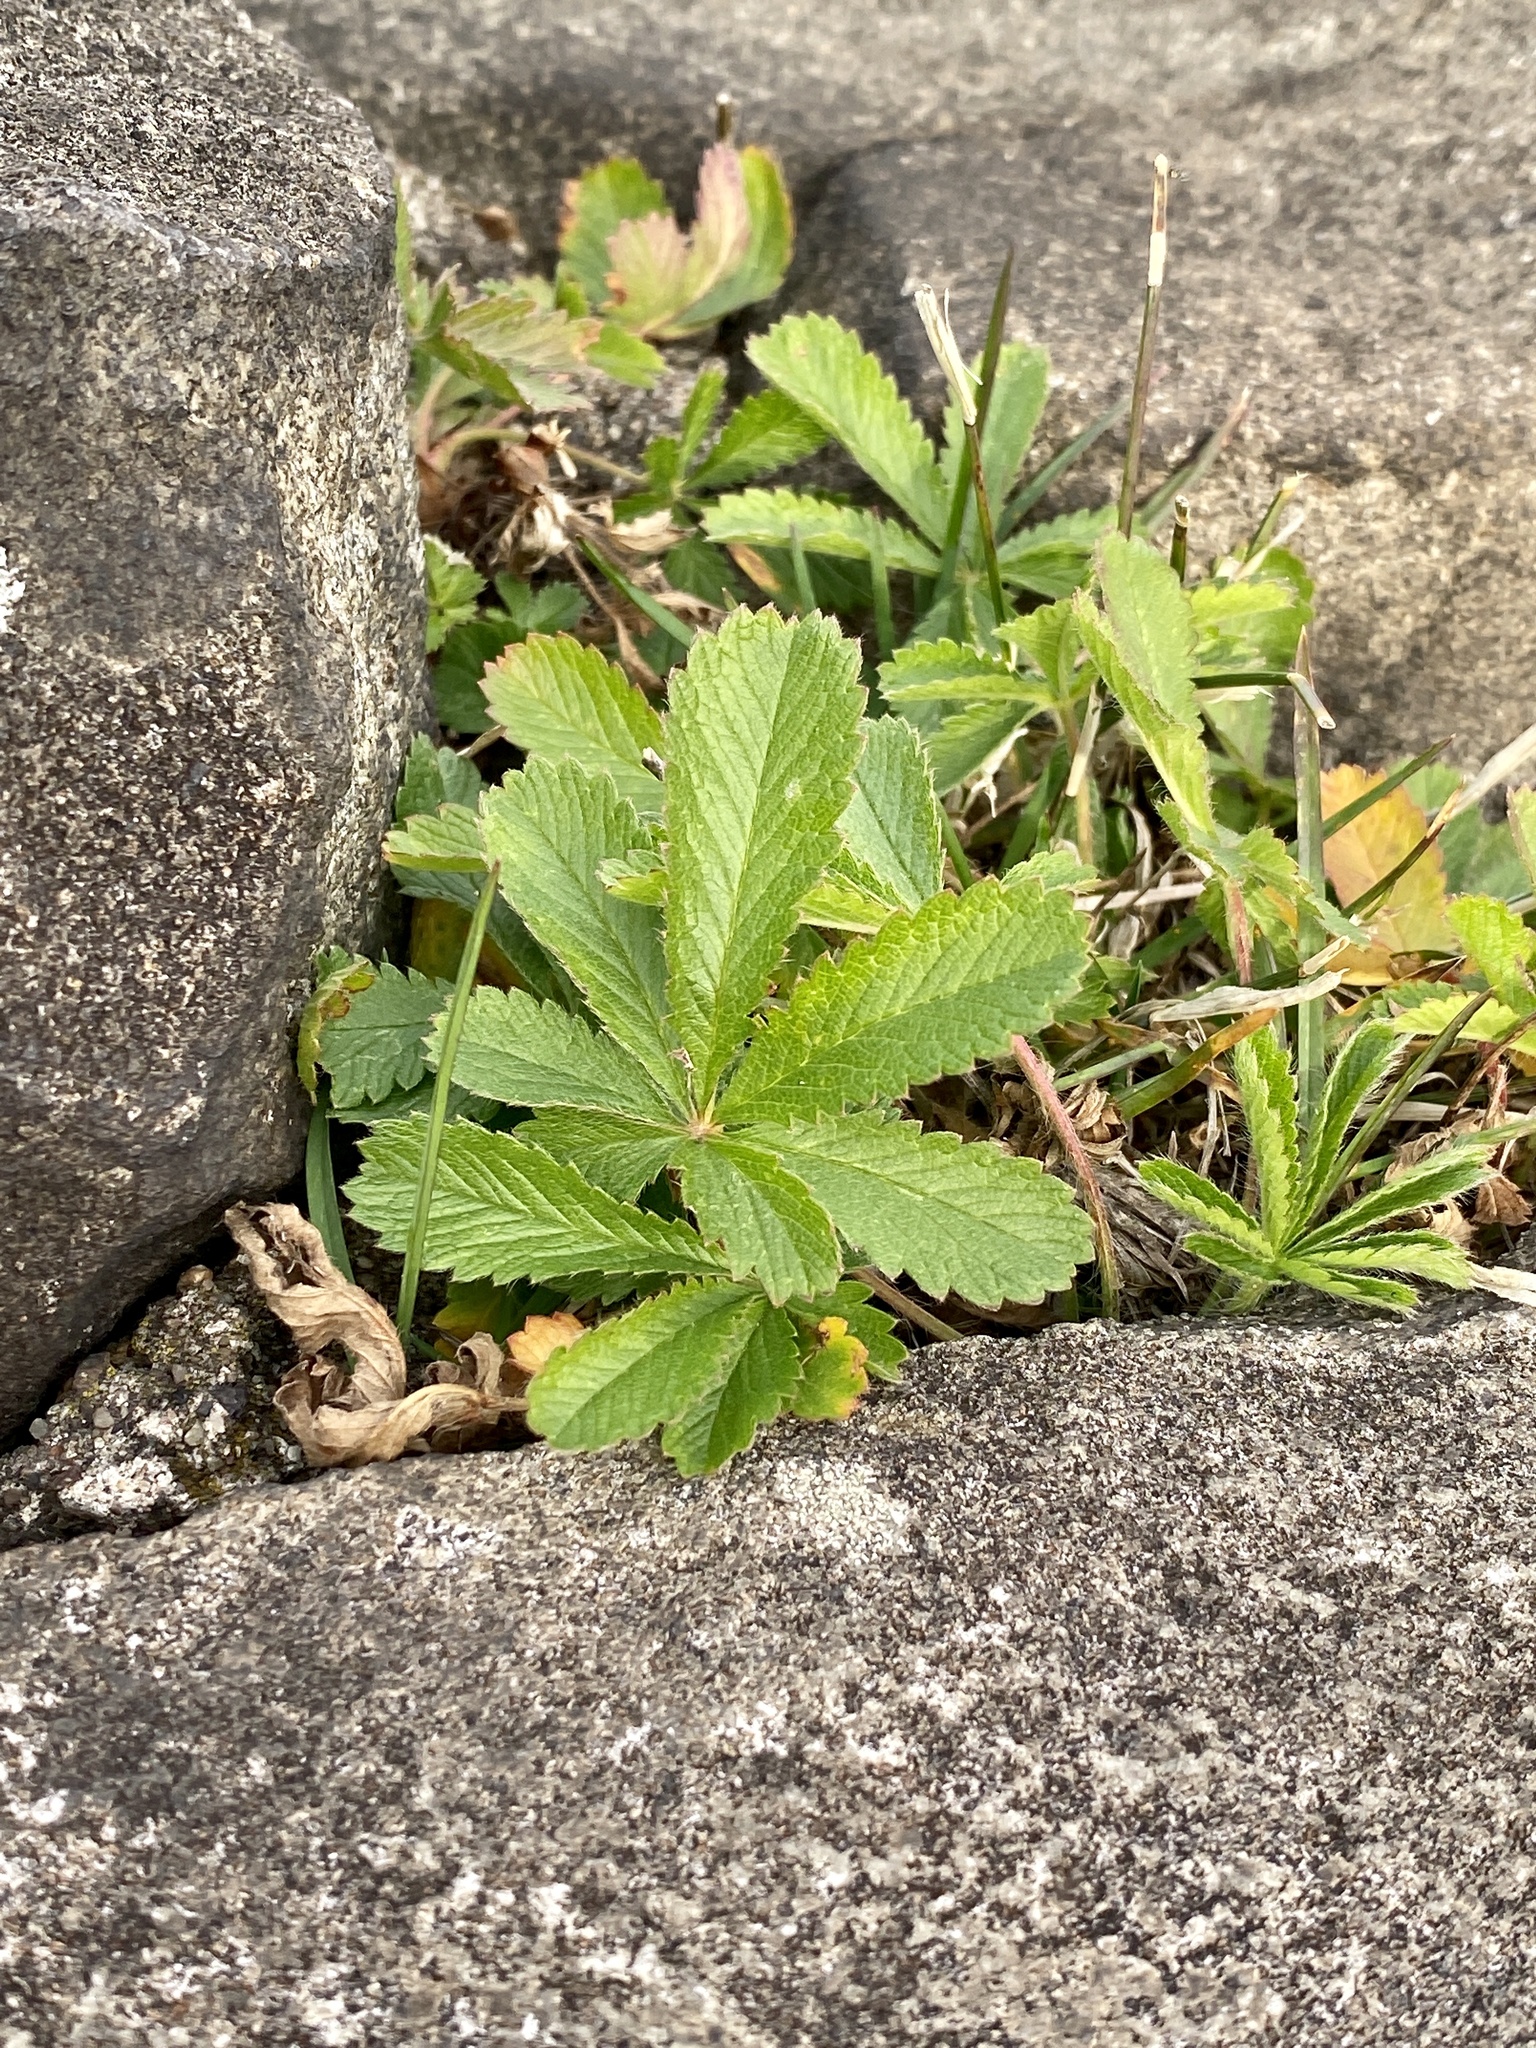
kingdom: Plantae
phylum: Tracheophyta
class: Magnoliopsida
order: Rosales
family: Rosaceae
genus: Potentilla
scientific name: Potentilla recta
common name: Sulphur cinquefoil
